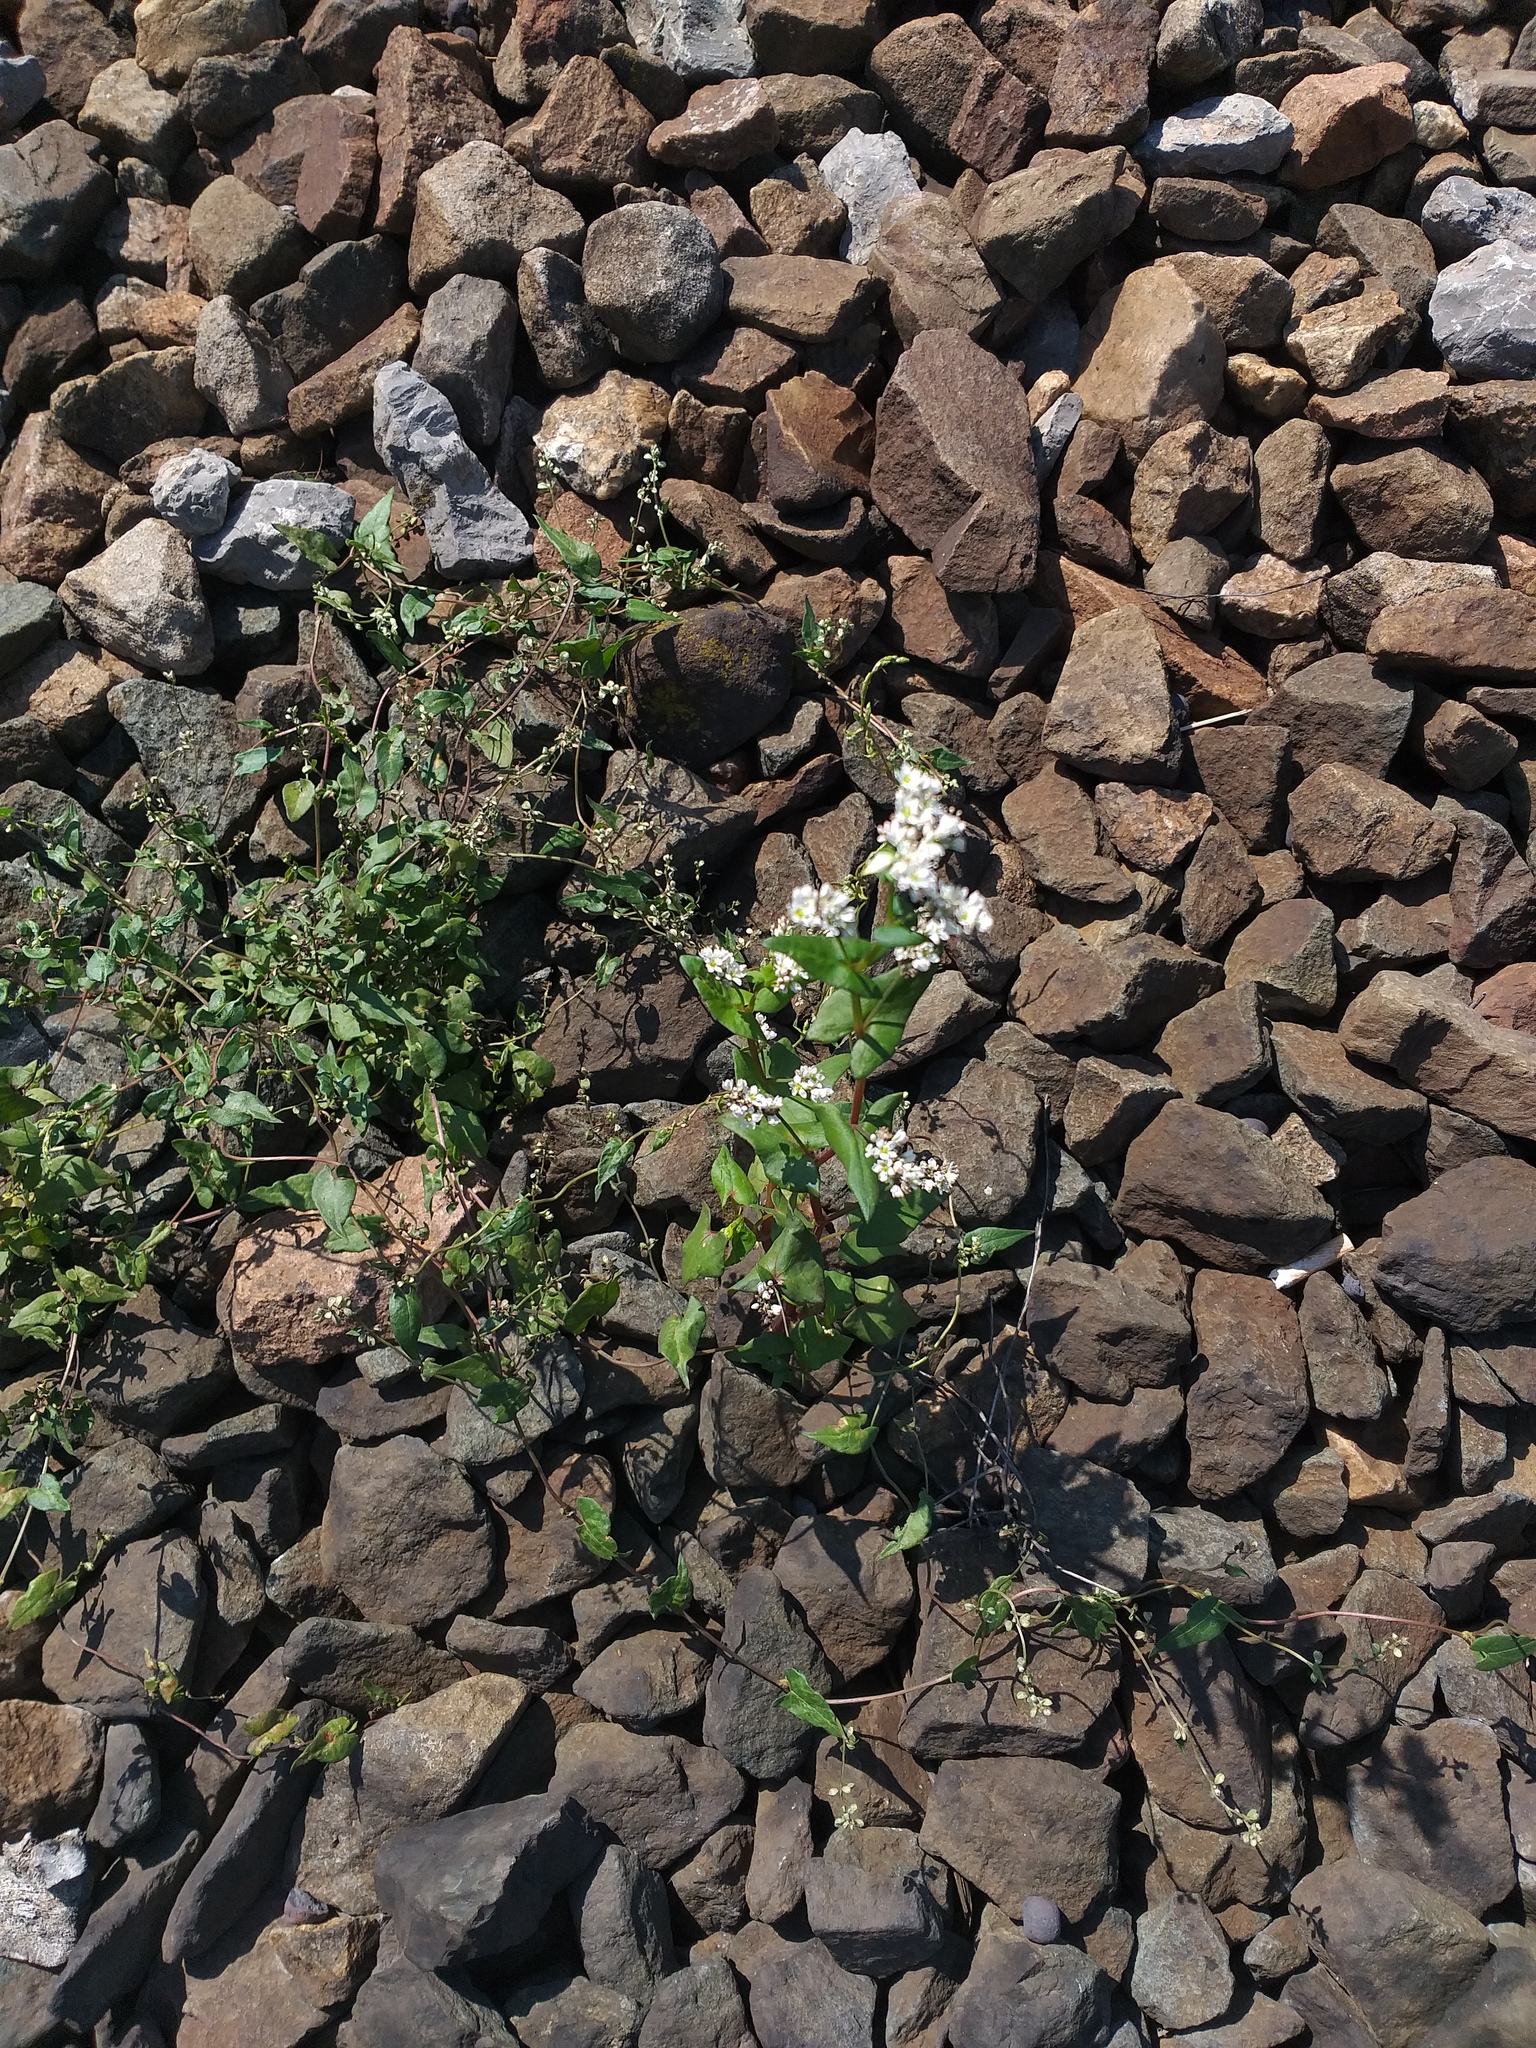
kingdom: Plantae
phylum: Tracheophyta
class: Magnoliopsida
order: Caryophyllales
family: Polygonaceae
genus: Fagopyrum
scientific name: Fagopyrum esculentum
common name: Buckwheat
